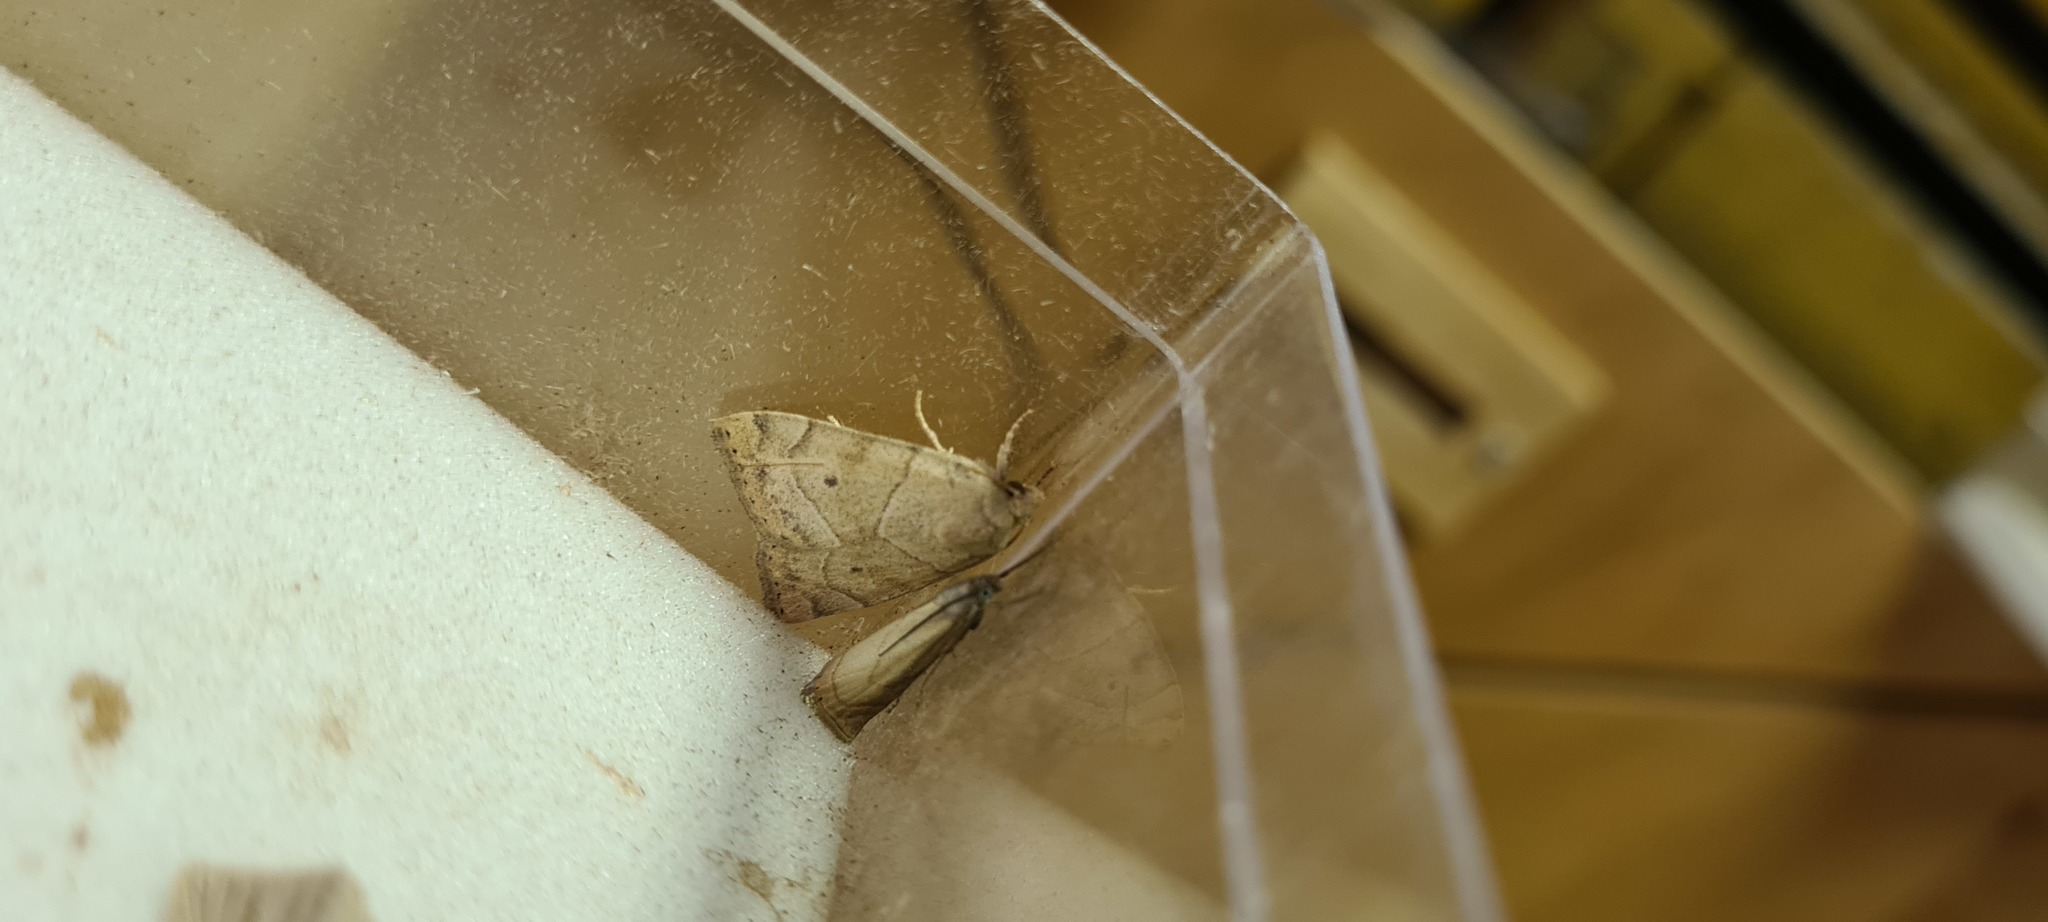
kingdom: Animalia
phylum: Arthropoda
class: Insecta
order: Lepidoptera
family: Noctuidae
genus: Cosmia
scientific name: Cosmia trapezina
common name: Dun-bar
